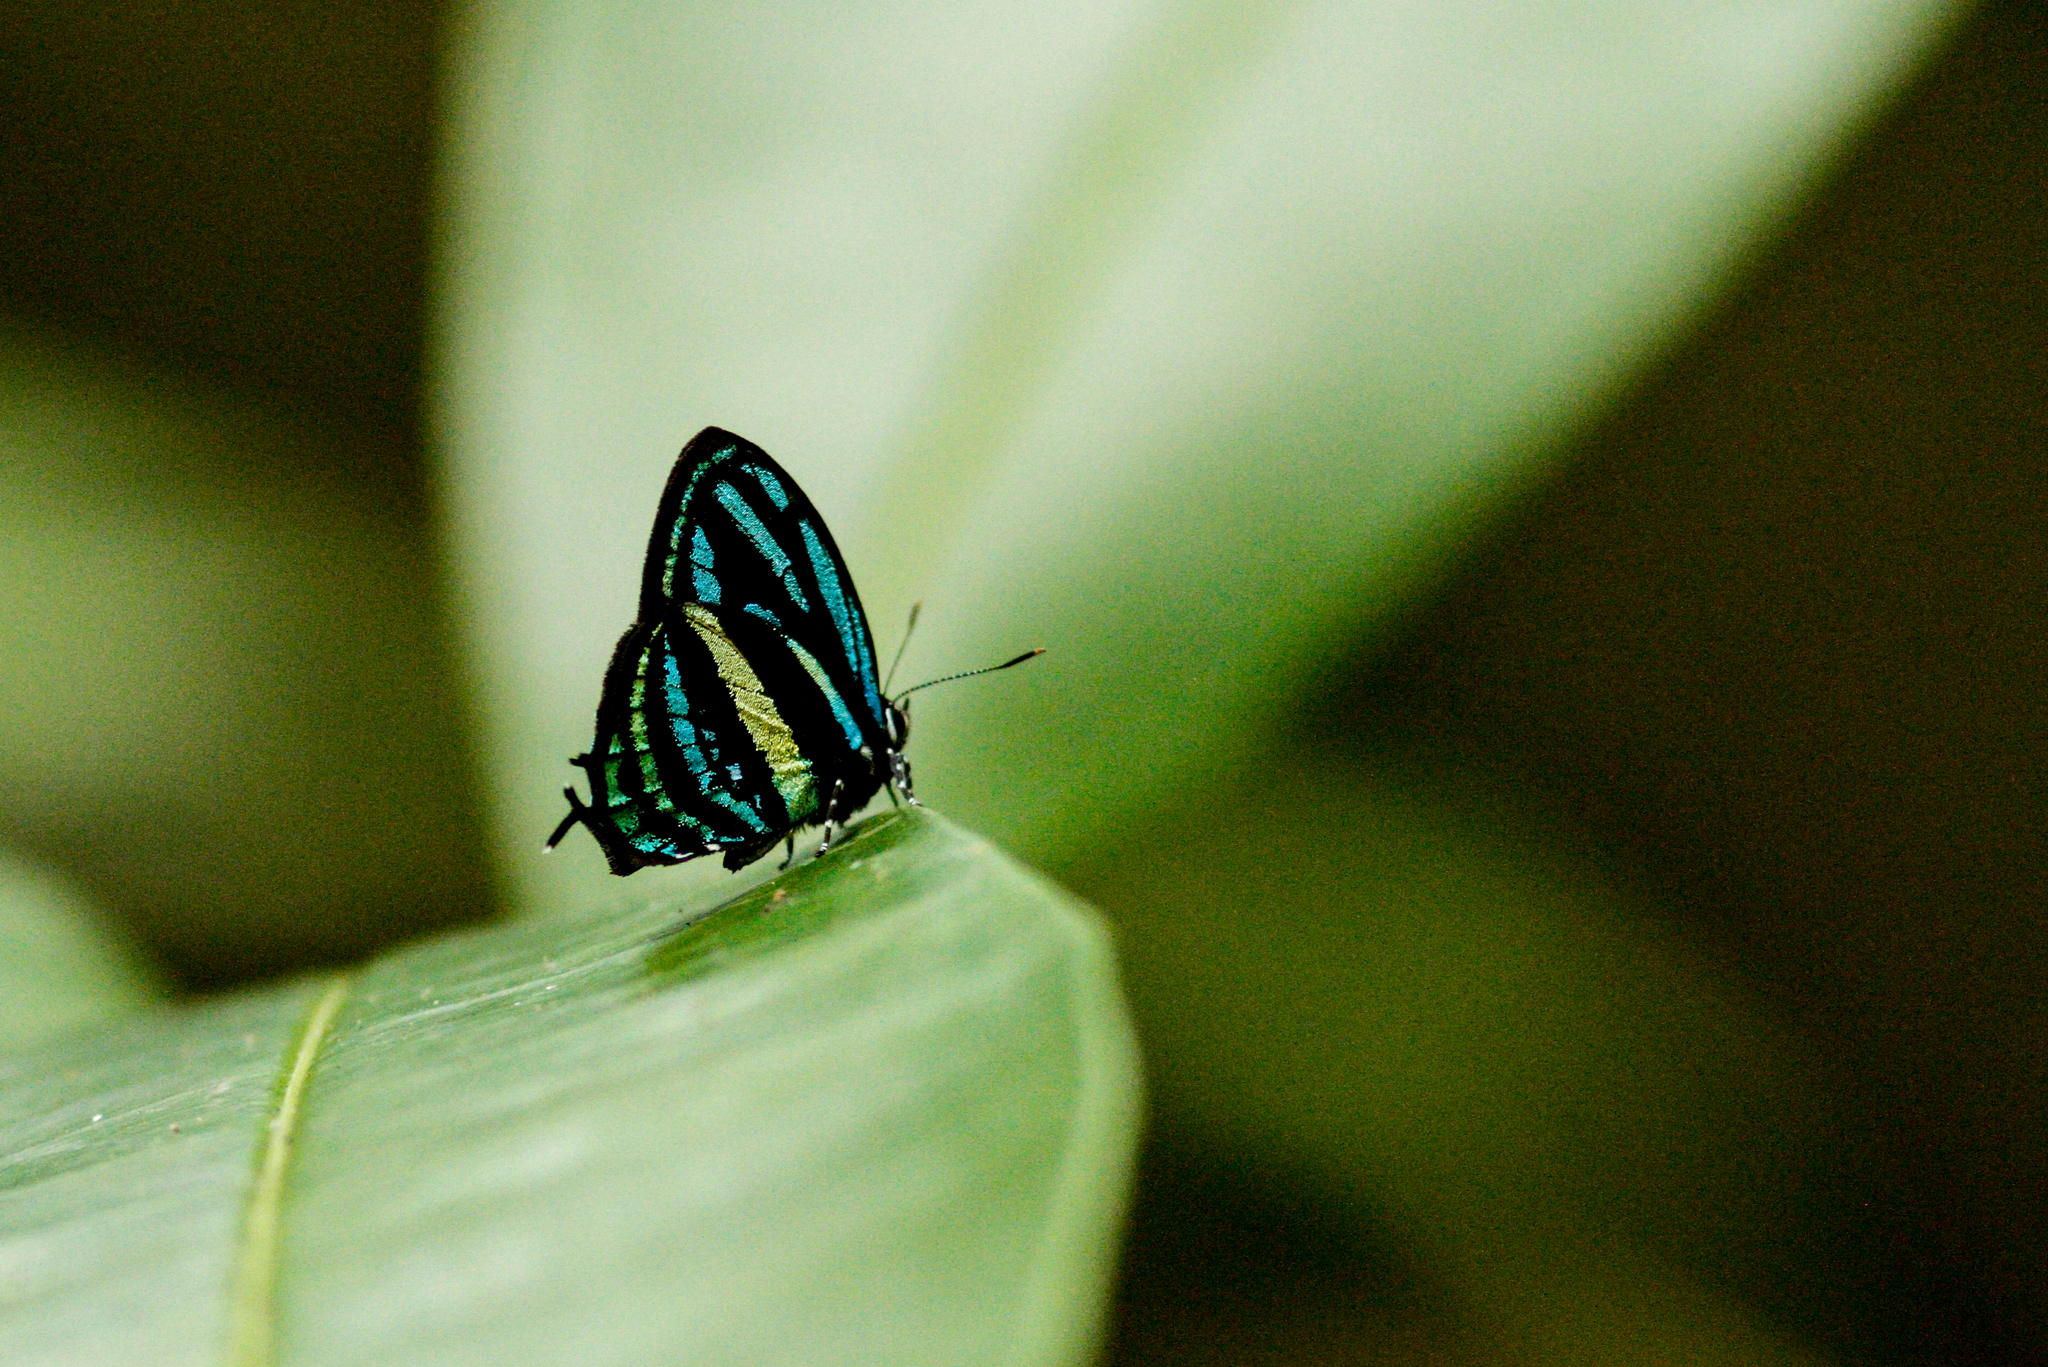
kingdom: Animalia
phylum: Arthropoda
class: Insecta
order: Lepidoptera
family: Lycaenidae
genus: Thestius
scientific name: Thestius pholeus
